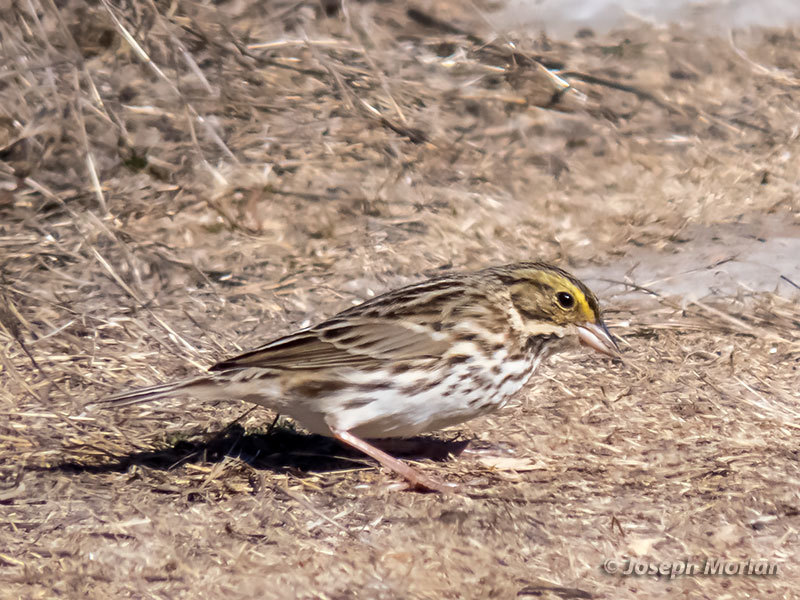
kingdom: Animalia
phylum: Chordata
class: Aves
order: Passeriformes
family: Passerellidae
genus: Passerculus
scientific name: Passerculus sandwichensis
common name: Savannah sparrow
